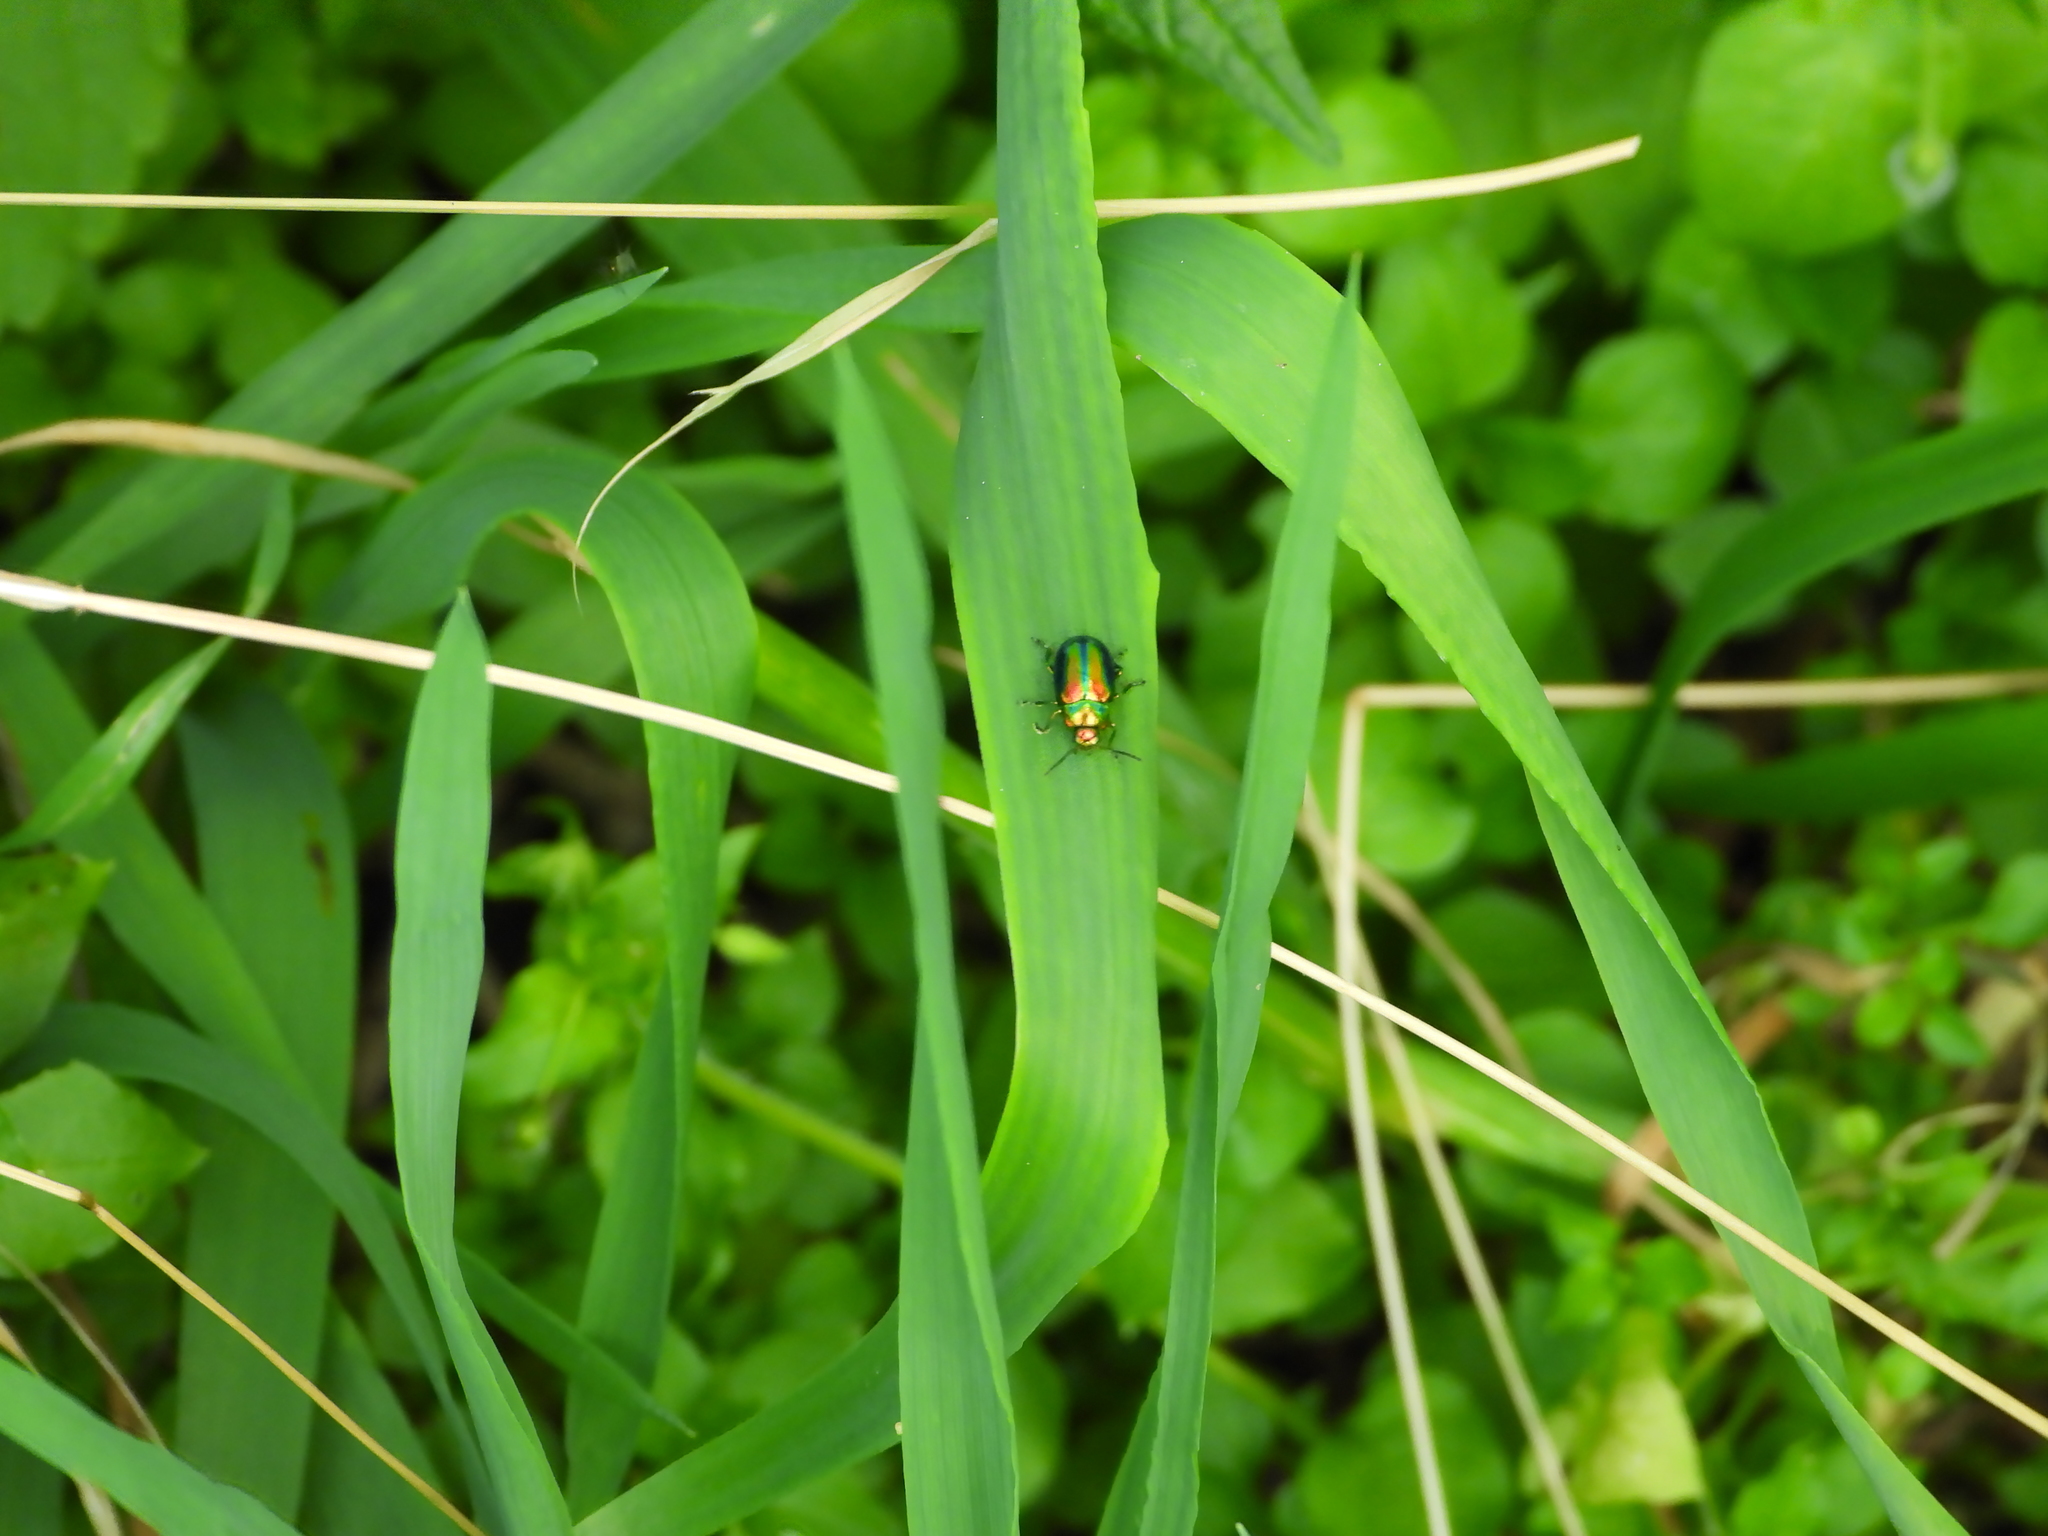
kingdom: Animalia
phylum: Arthropoda
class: Insecta
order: Coleoptera
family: Chrysomelidae
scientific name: Chrysomelidae
